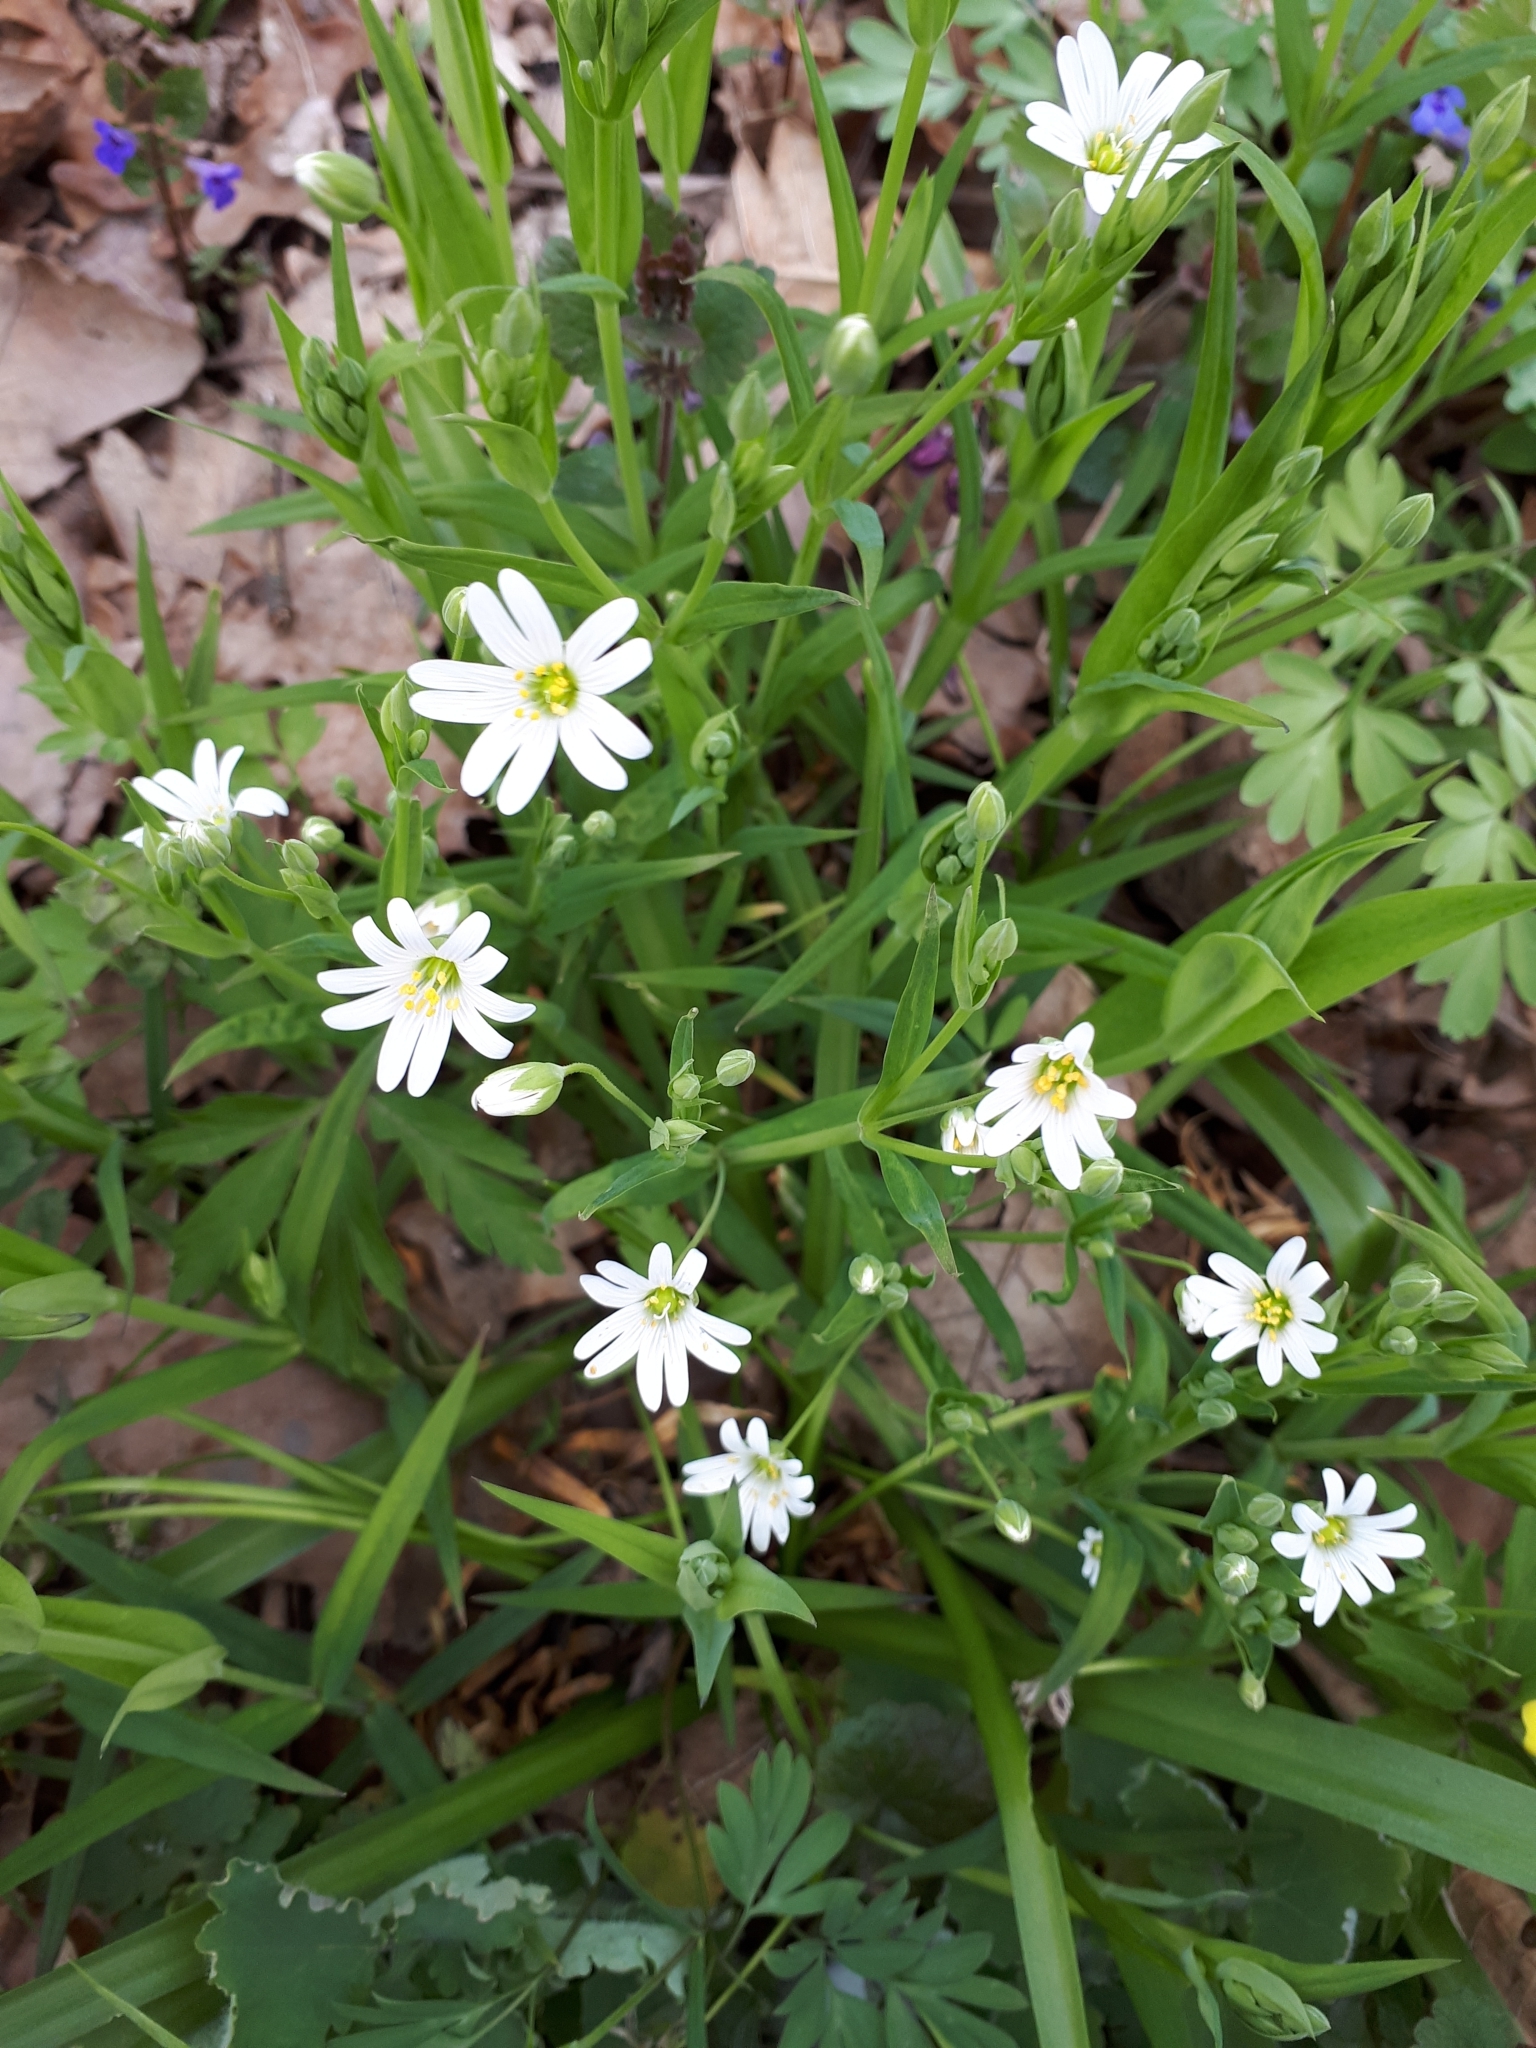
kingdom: Plantae
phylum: Tracheophyta
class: Magnoliopsida
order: Caryophyllales
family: Caryophyllaceae
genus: Rabelera
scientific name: Rabelera holostea
